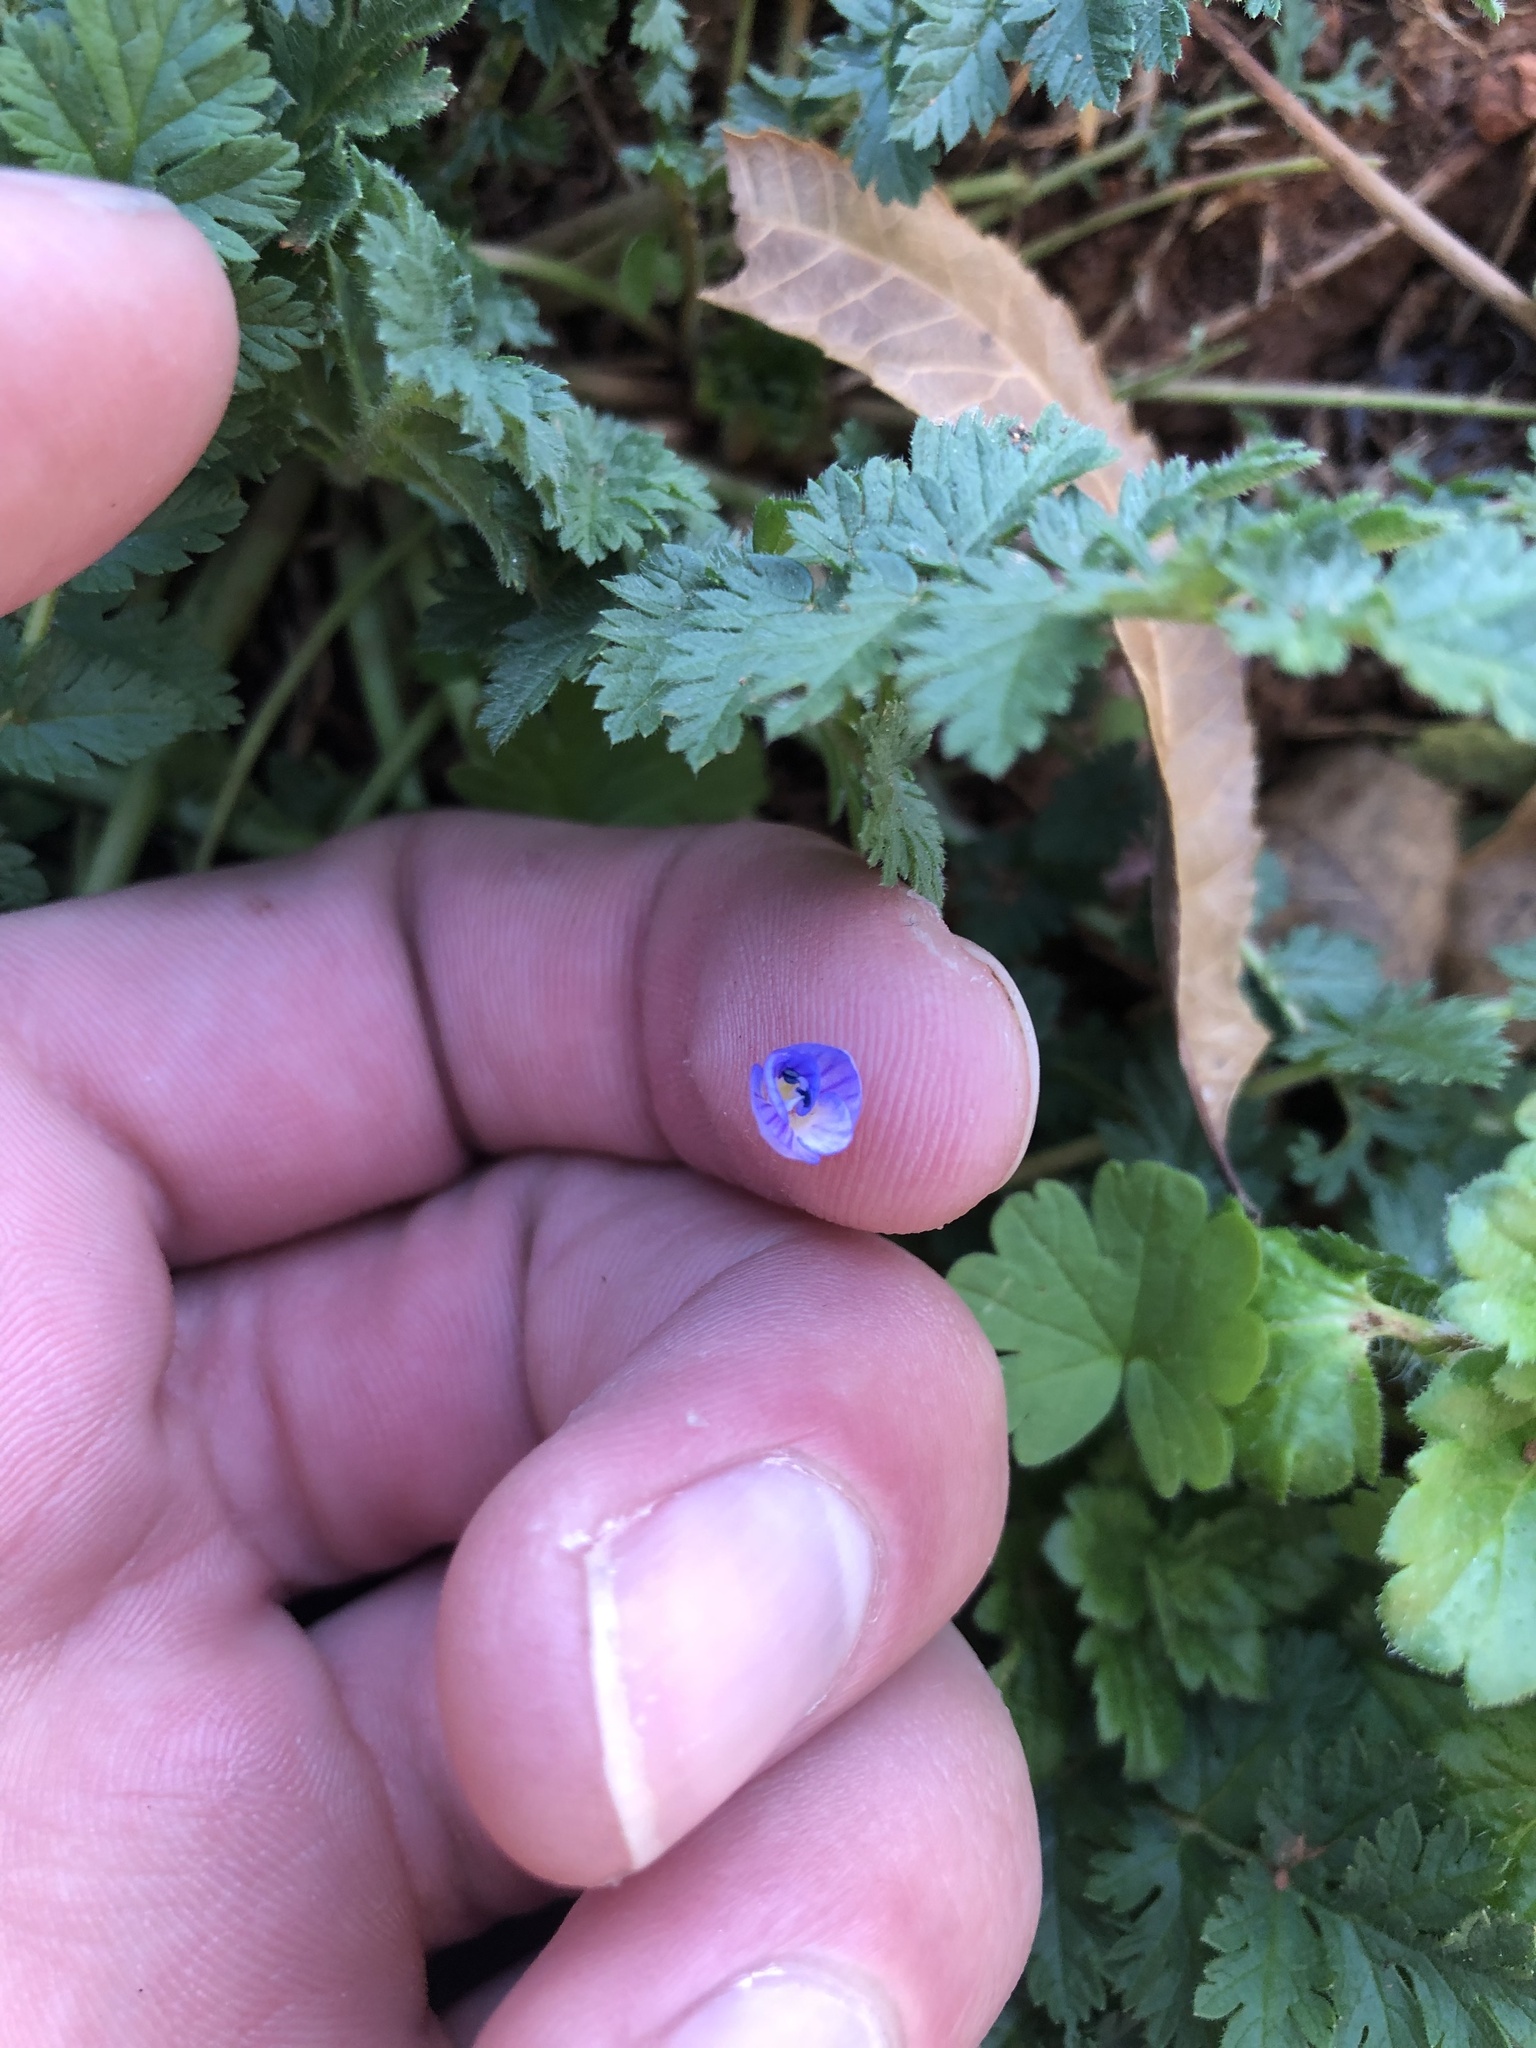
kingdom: Plantae
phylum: Tracheophyta
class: Magnoliopsida
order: Lamiales
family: Plantaginaceae
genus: Veronica
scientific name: Veronica persica
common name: Common field-speedwell
